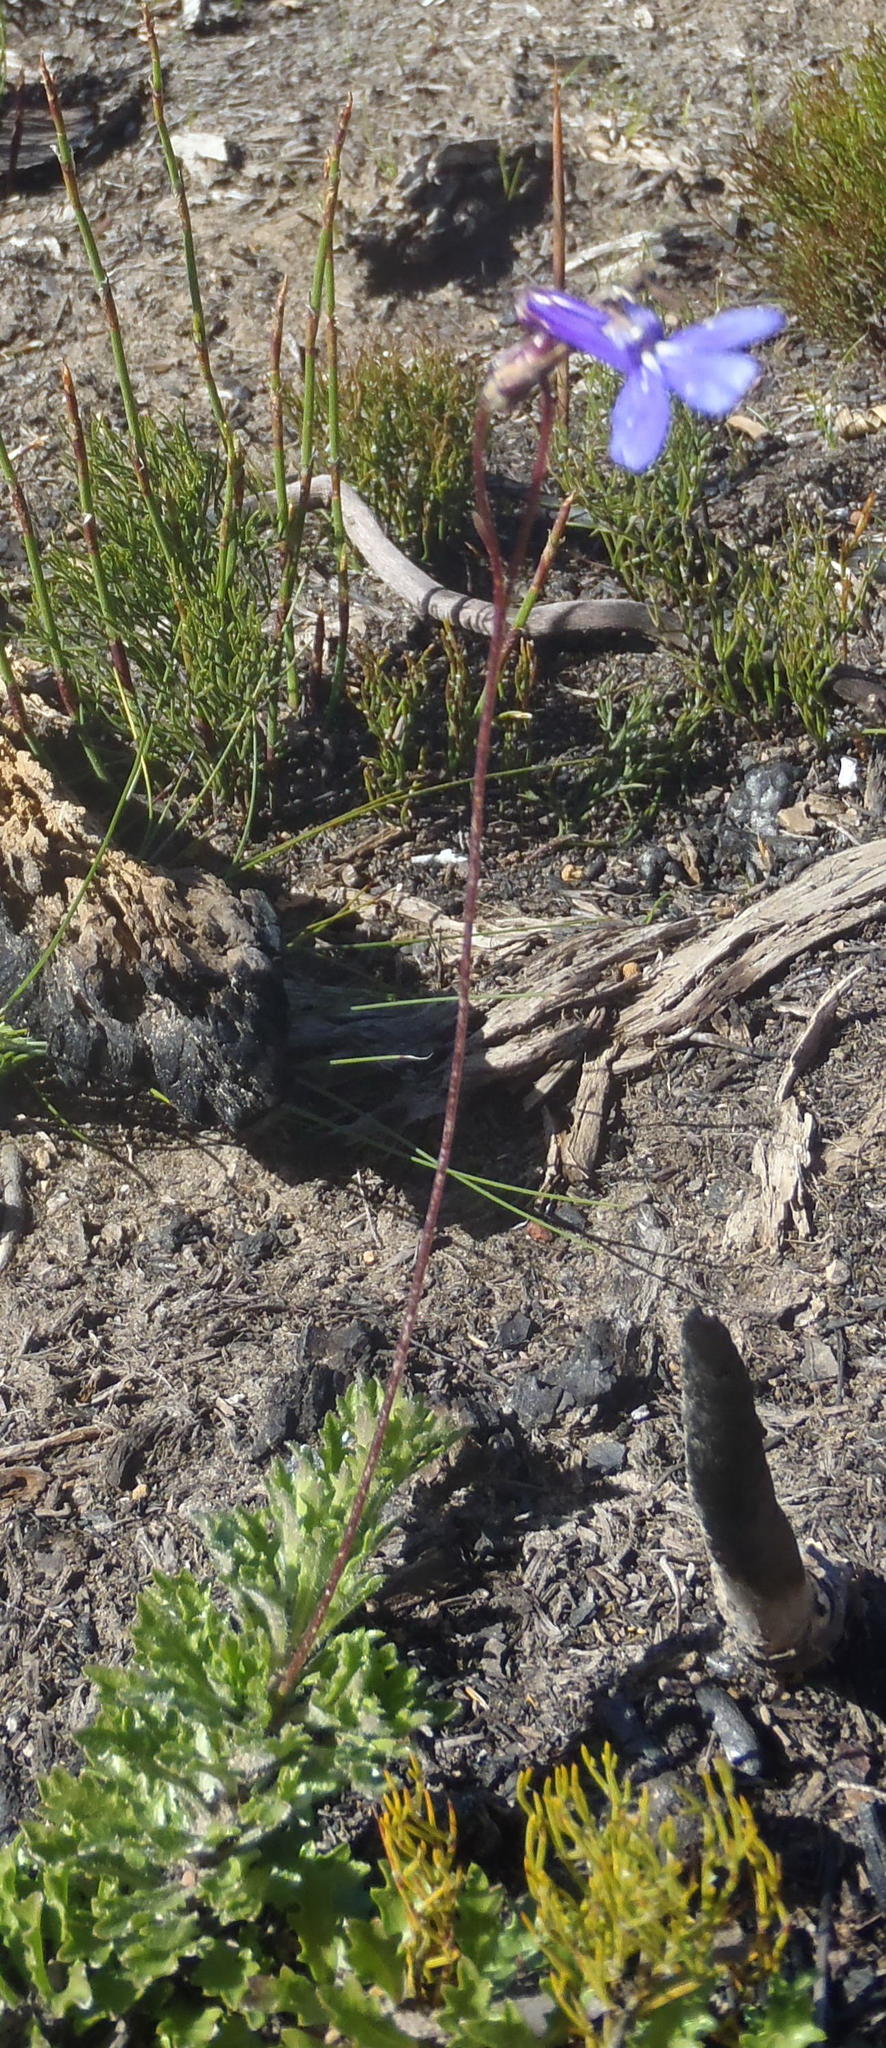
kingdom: Plantae
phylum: Tracheophyta
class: Magnoliopsida
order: Asterales
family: Campanulaceae
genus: Lobelia
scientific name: Lobelia tomentosa
